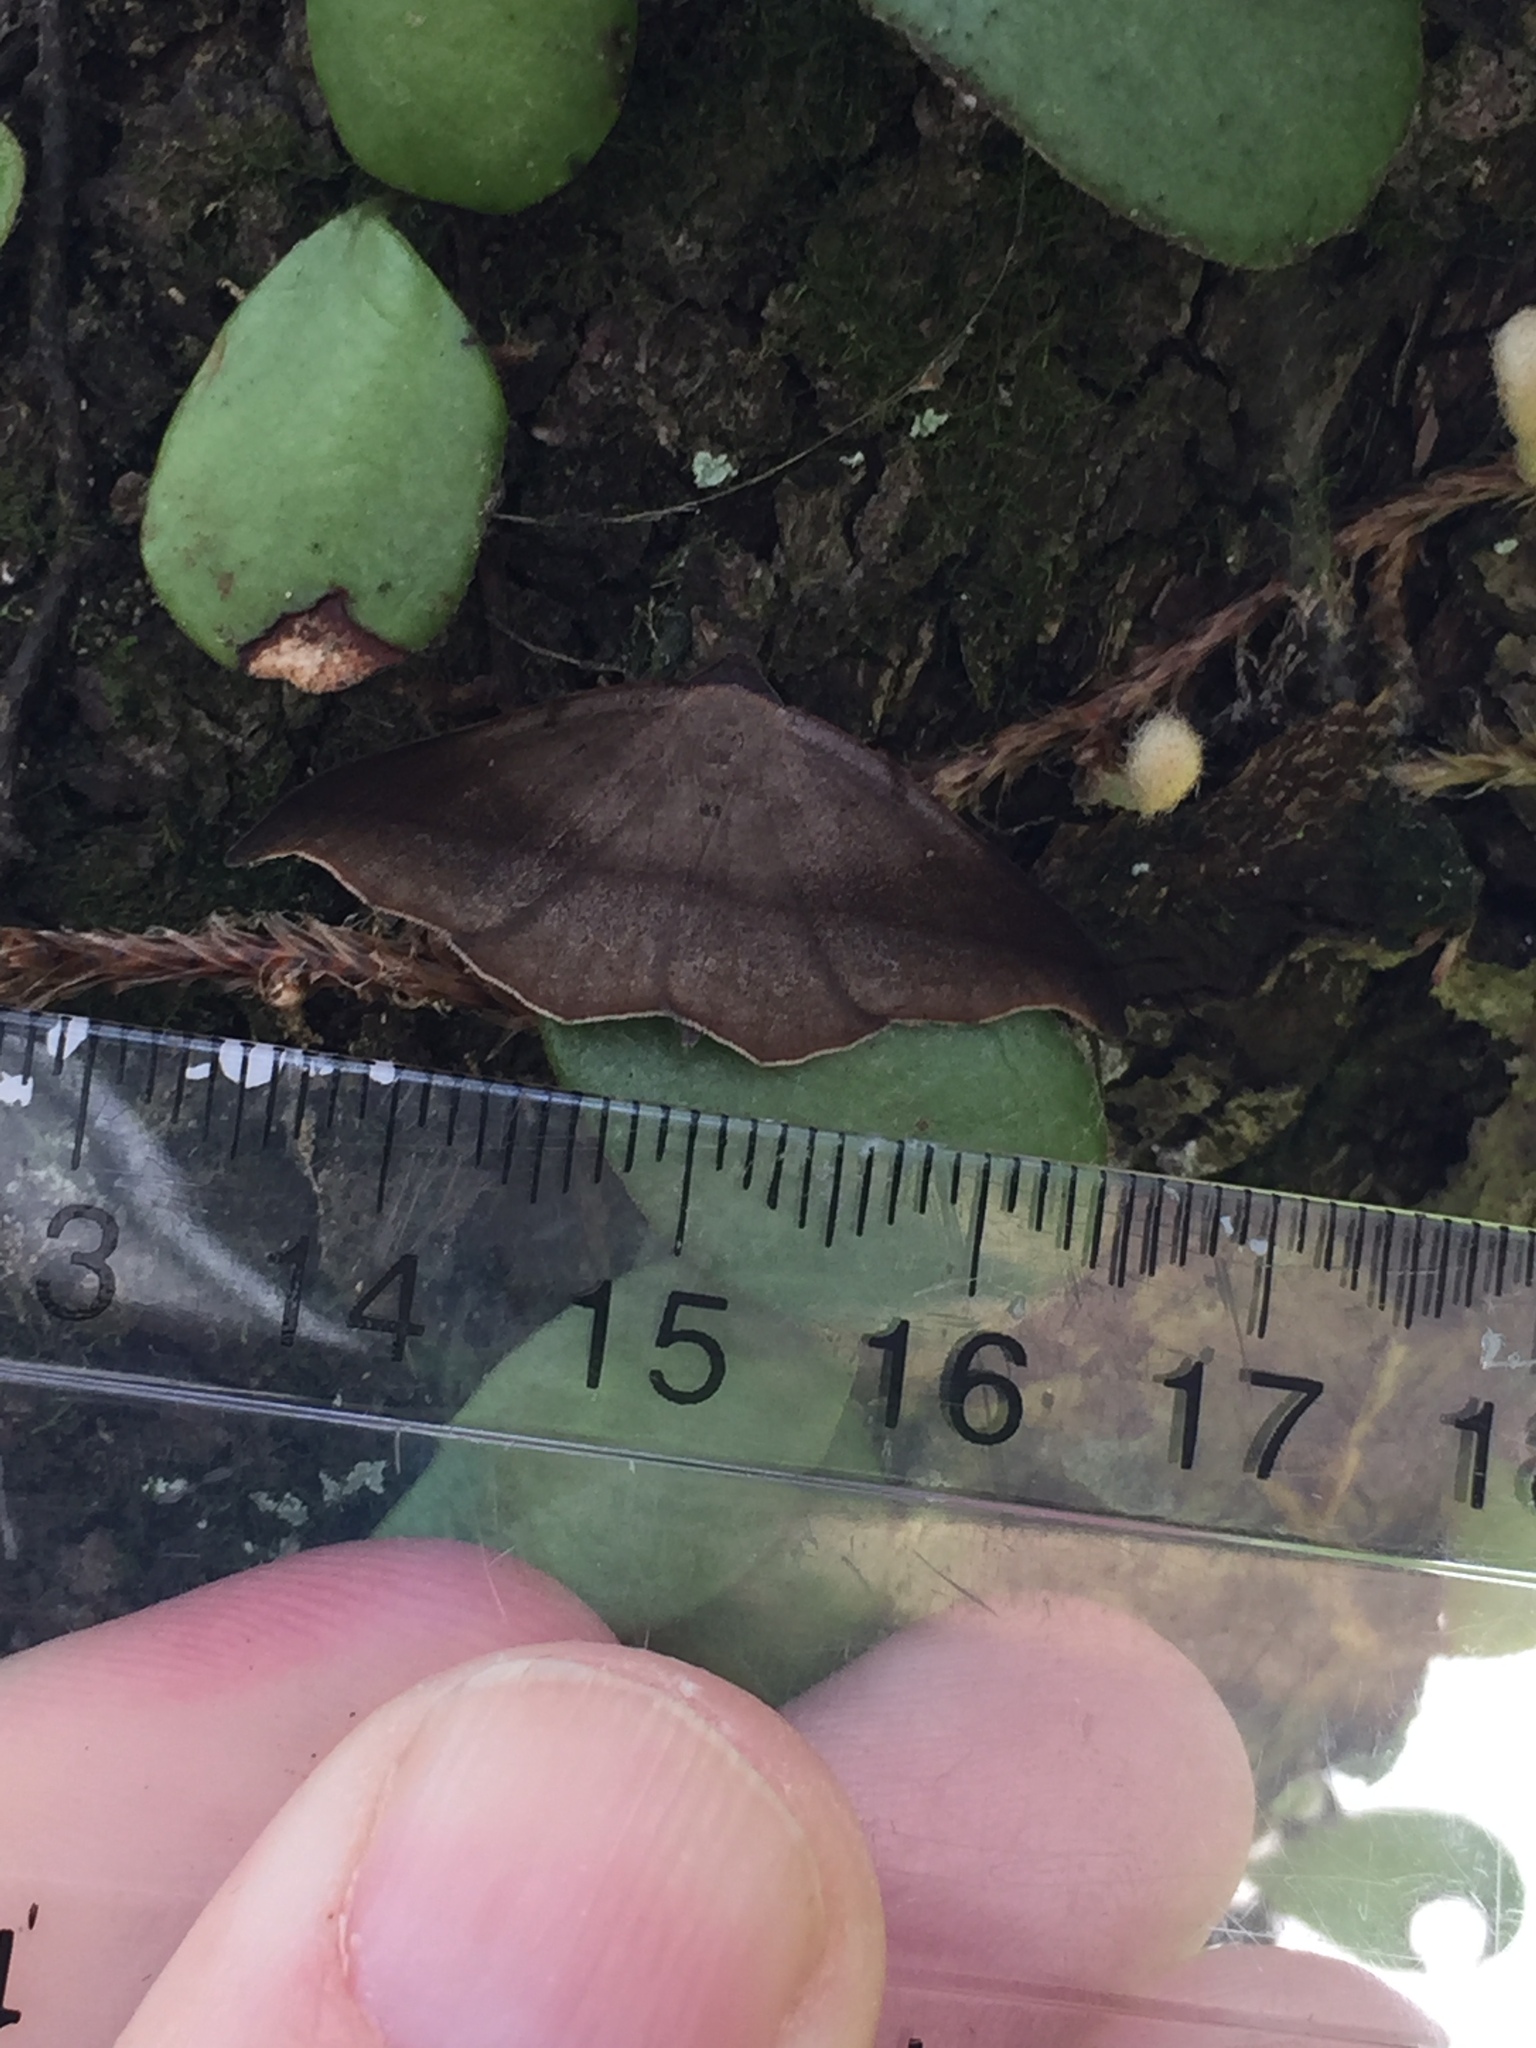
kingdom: Animalia
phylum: Arthropoda
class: Insecta
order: Lepidoptera
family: Geometridae
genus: Sarisa
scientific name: Sarisa muriferata
